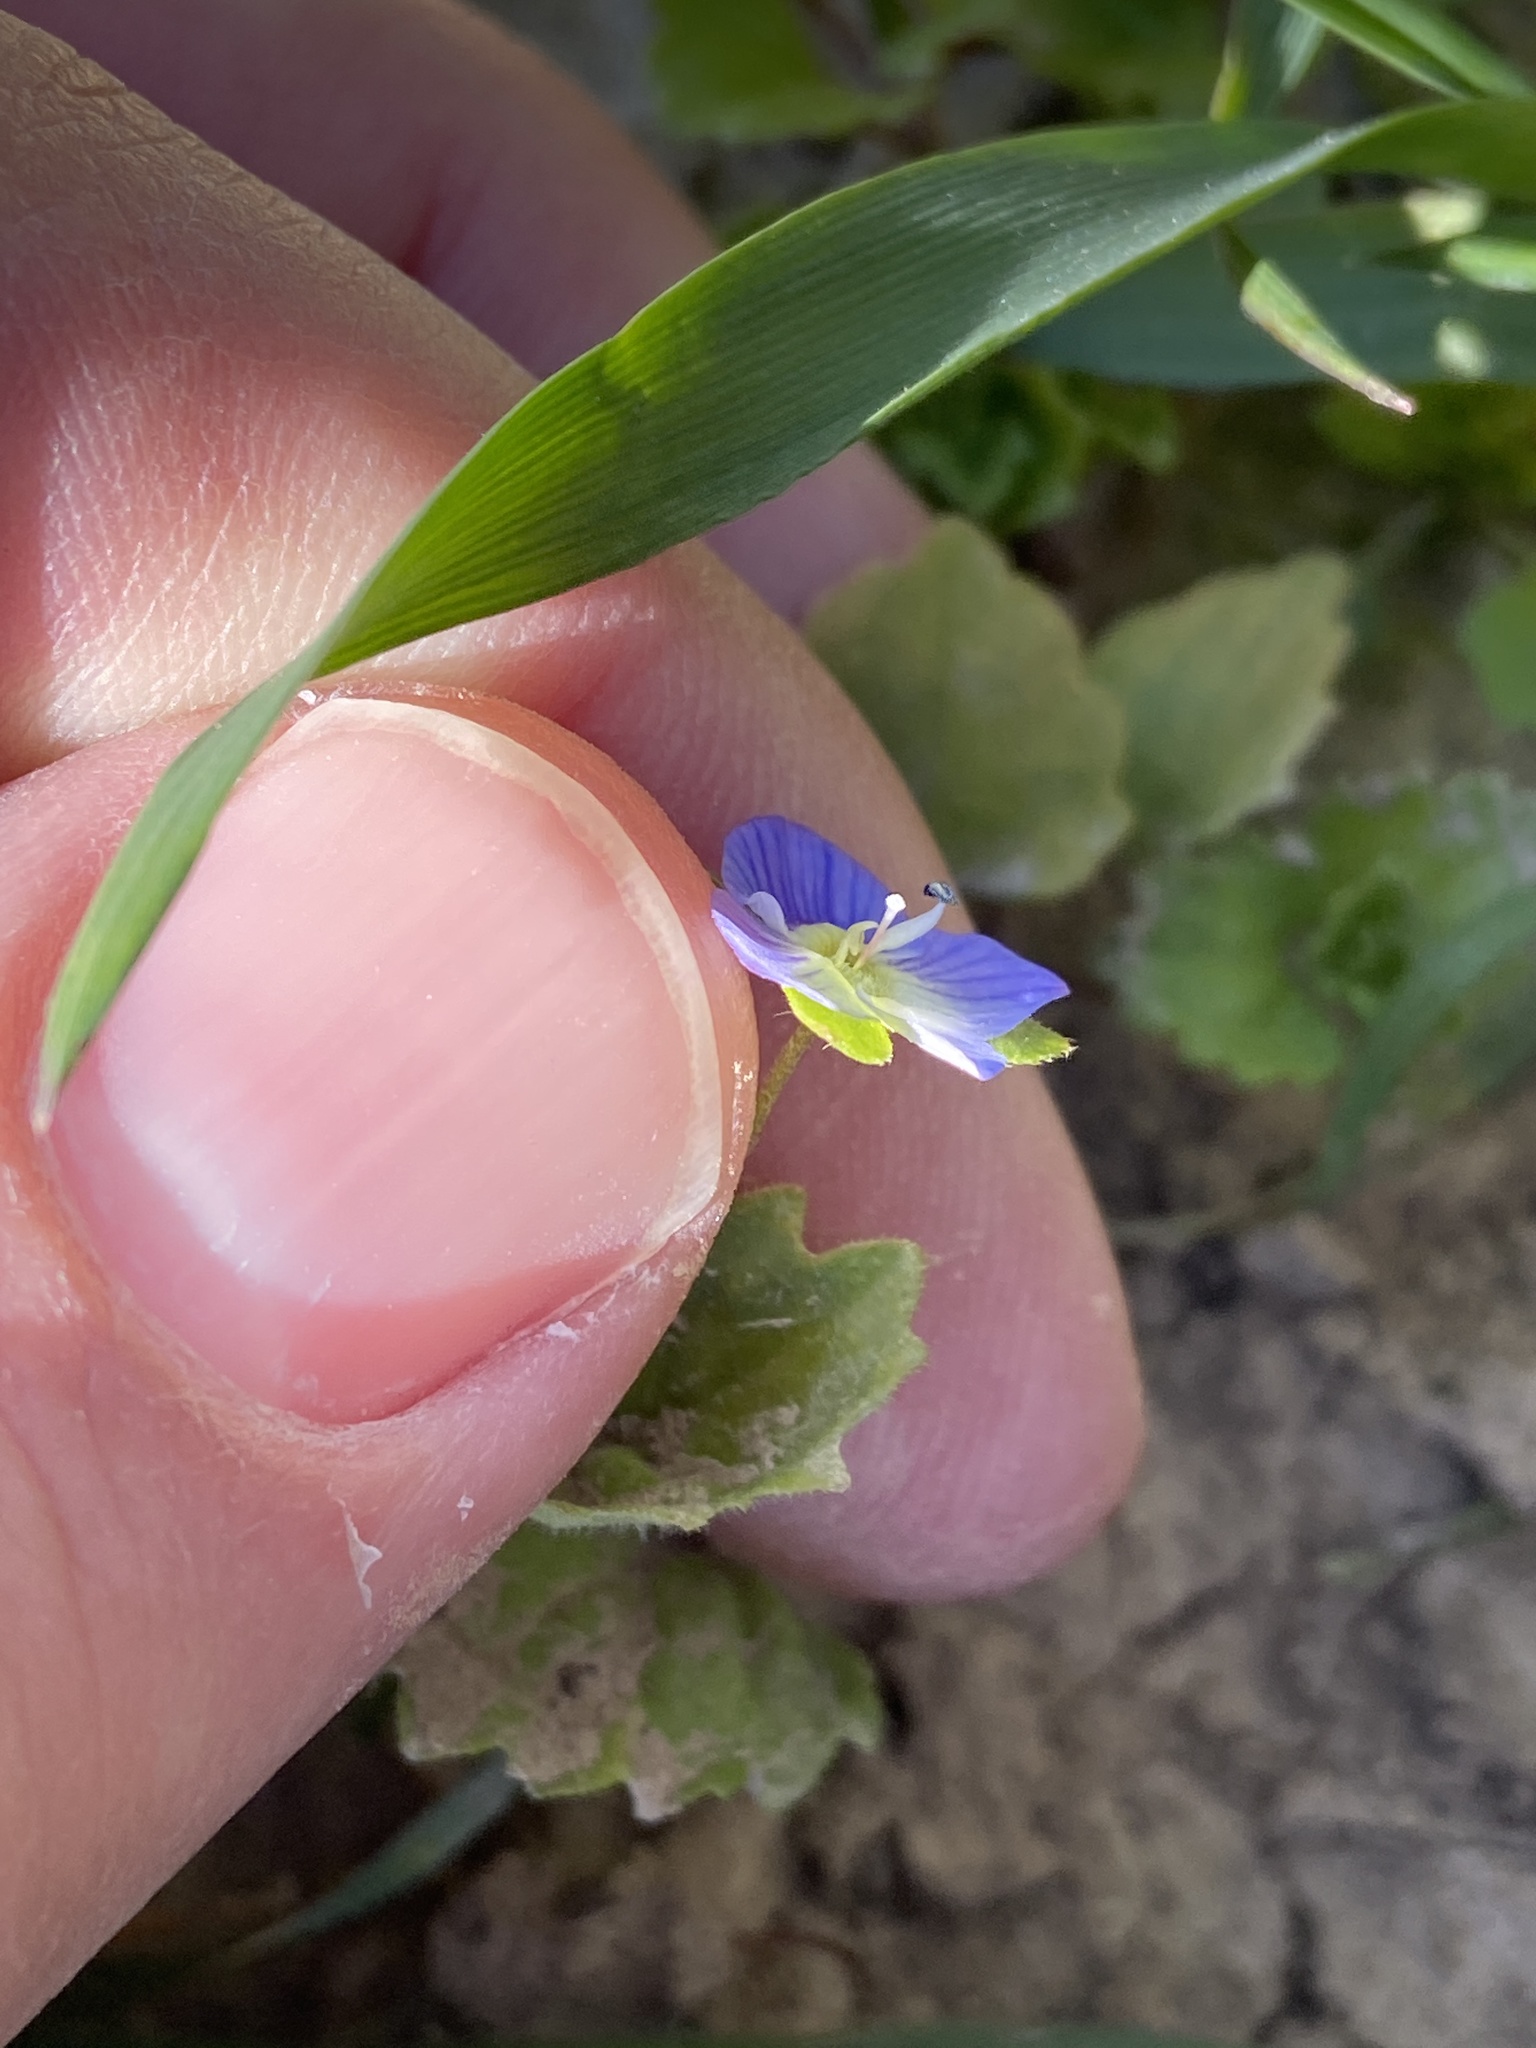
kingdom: Plantae
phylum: Tracheophyta
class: Magnoliopsida
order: Lamiales
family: Plantaginaceae
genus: Veronica
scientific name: Veronica persica
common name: Common field-speedwell
